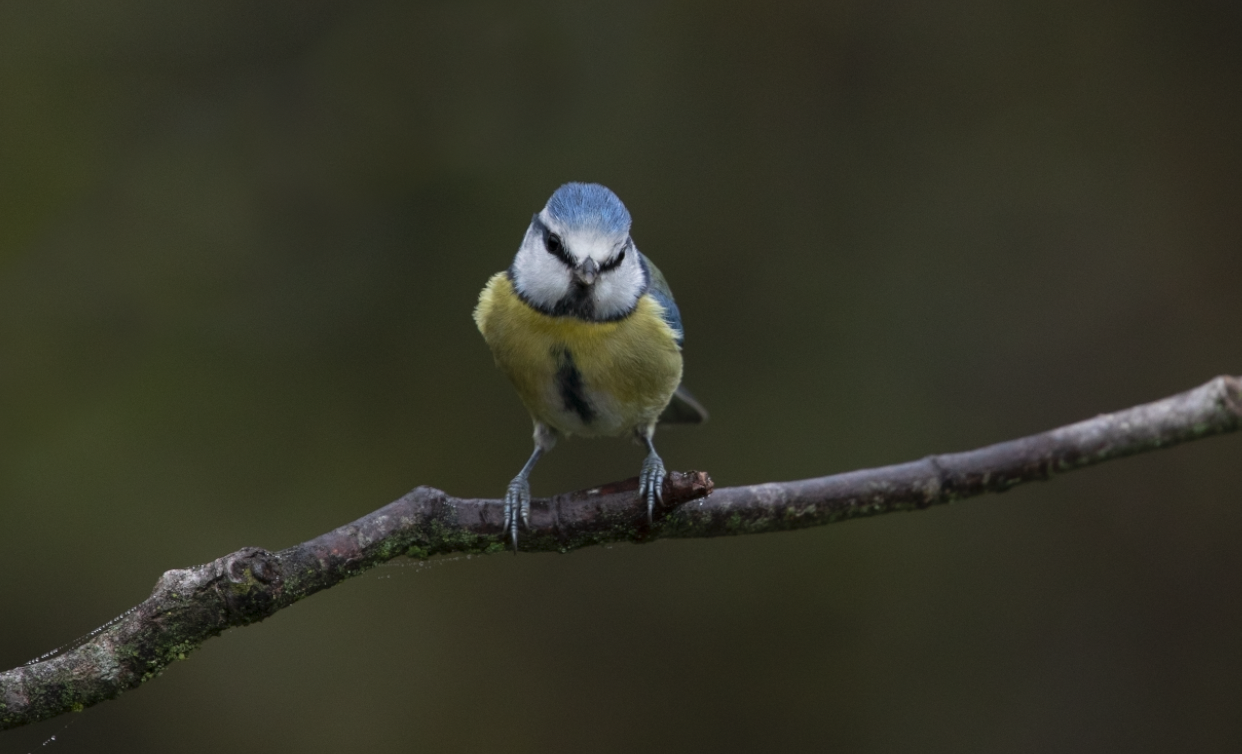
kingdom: Animalia
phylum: Chordata
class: Aves
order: Passeriformes
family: Paridae
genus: Cyanistes
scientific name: Cyanistes caeruleus
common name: Eurasian blue tit
